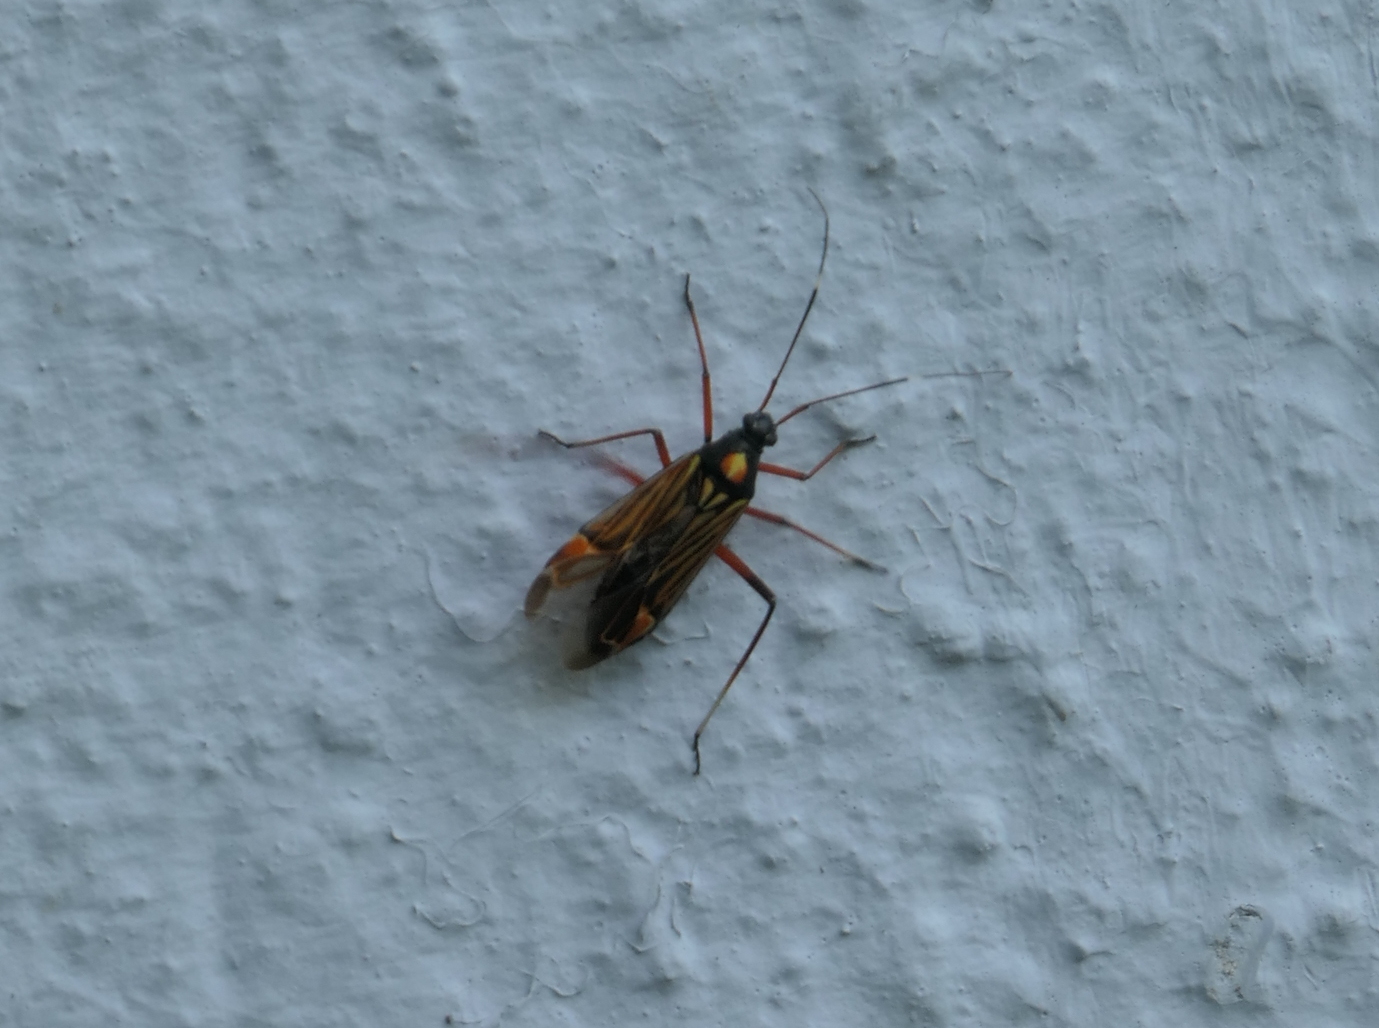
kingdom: Animalia
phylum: Arthropoda
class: Insecta
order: Hemiptera
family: Miridae
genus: Miris
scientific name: Miris striatus
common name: Fine streaked bugkin
